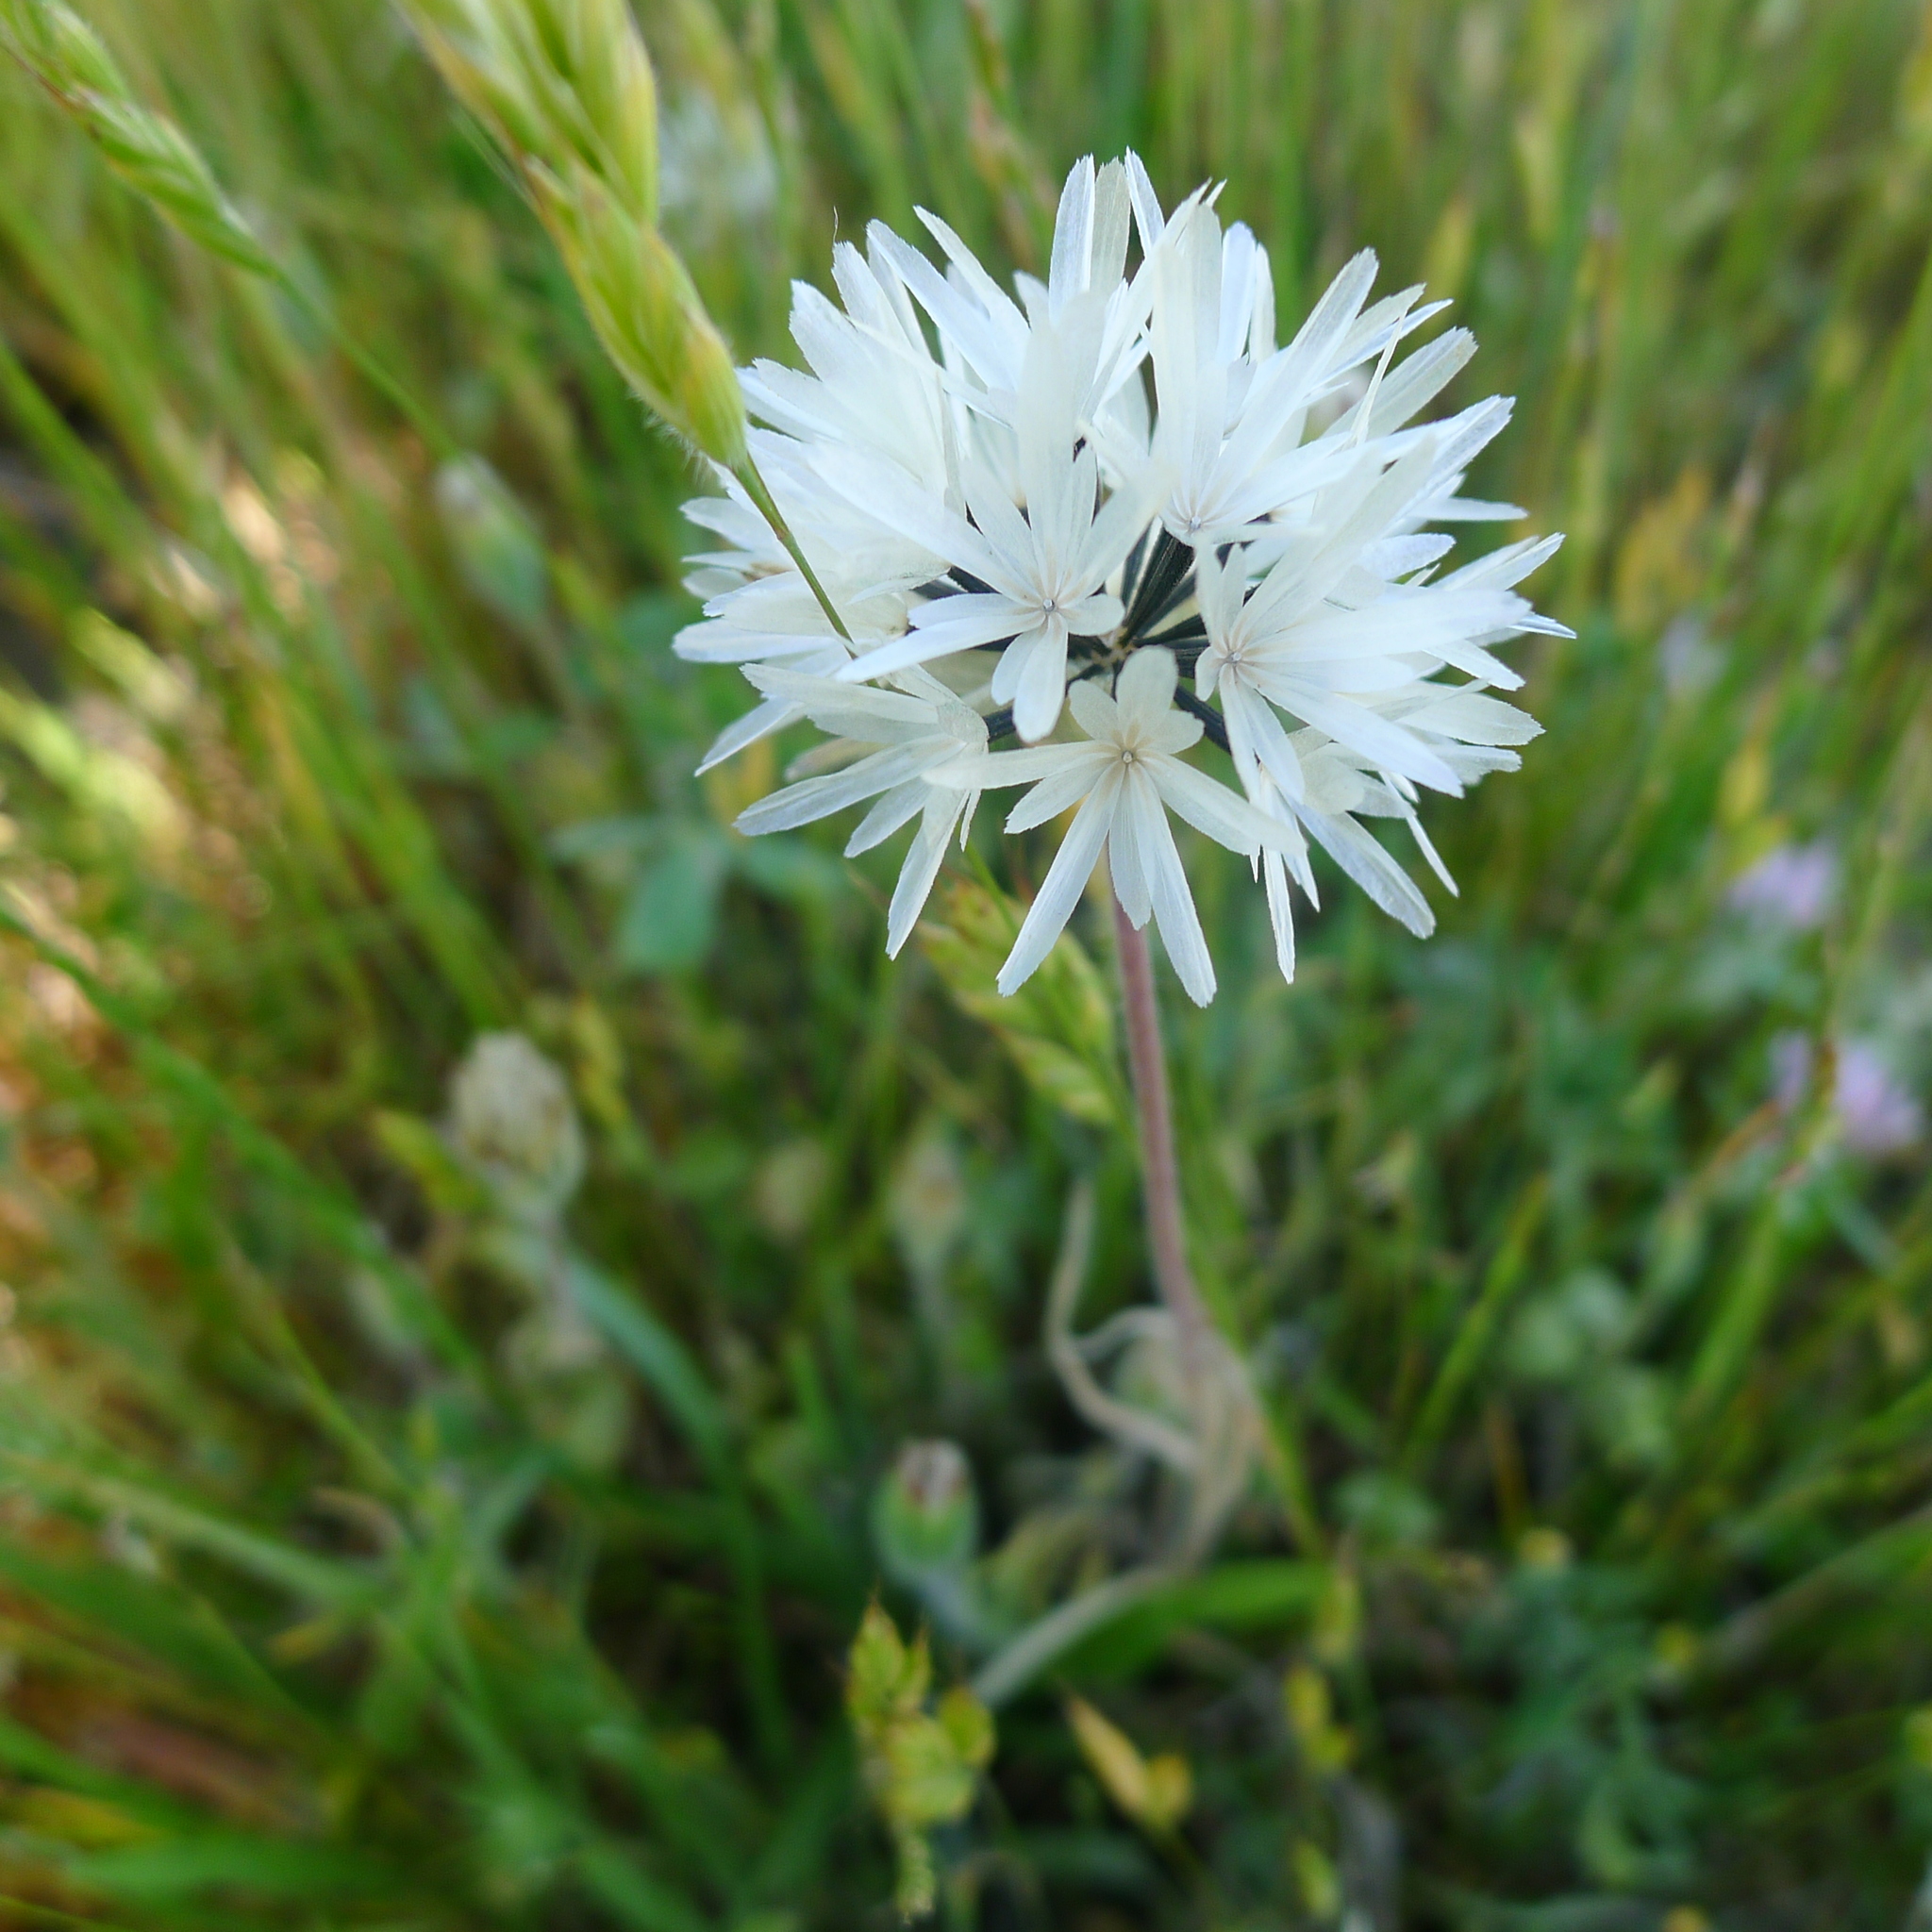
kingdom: Plantae
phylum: Tracheophyta
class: Magnoliopsida
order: Asterales
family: Asteraceae
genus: Achyrachaena
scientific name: Achyrachaena mollis
